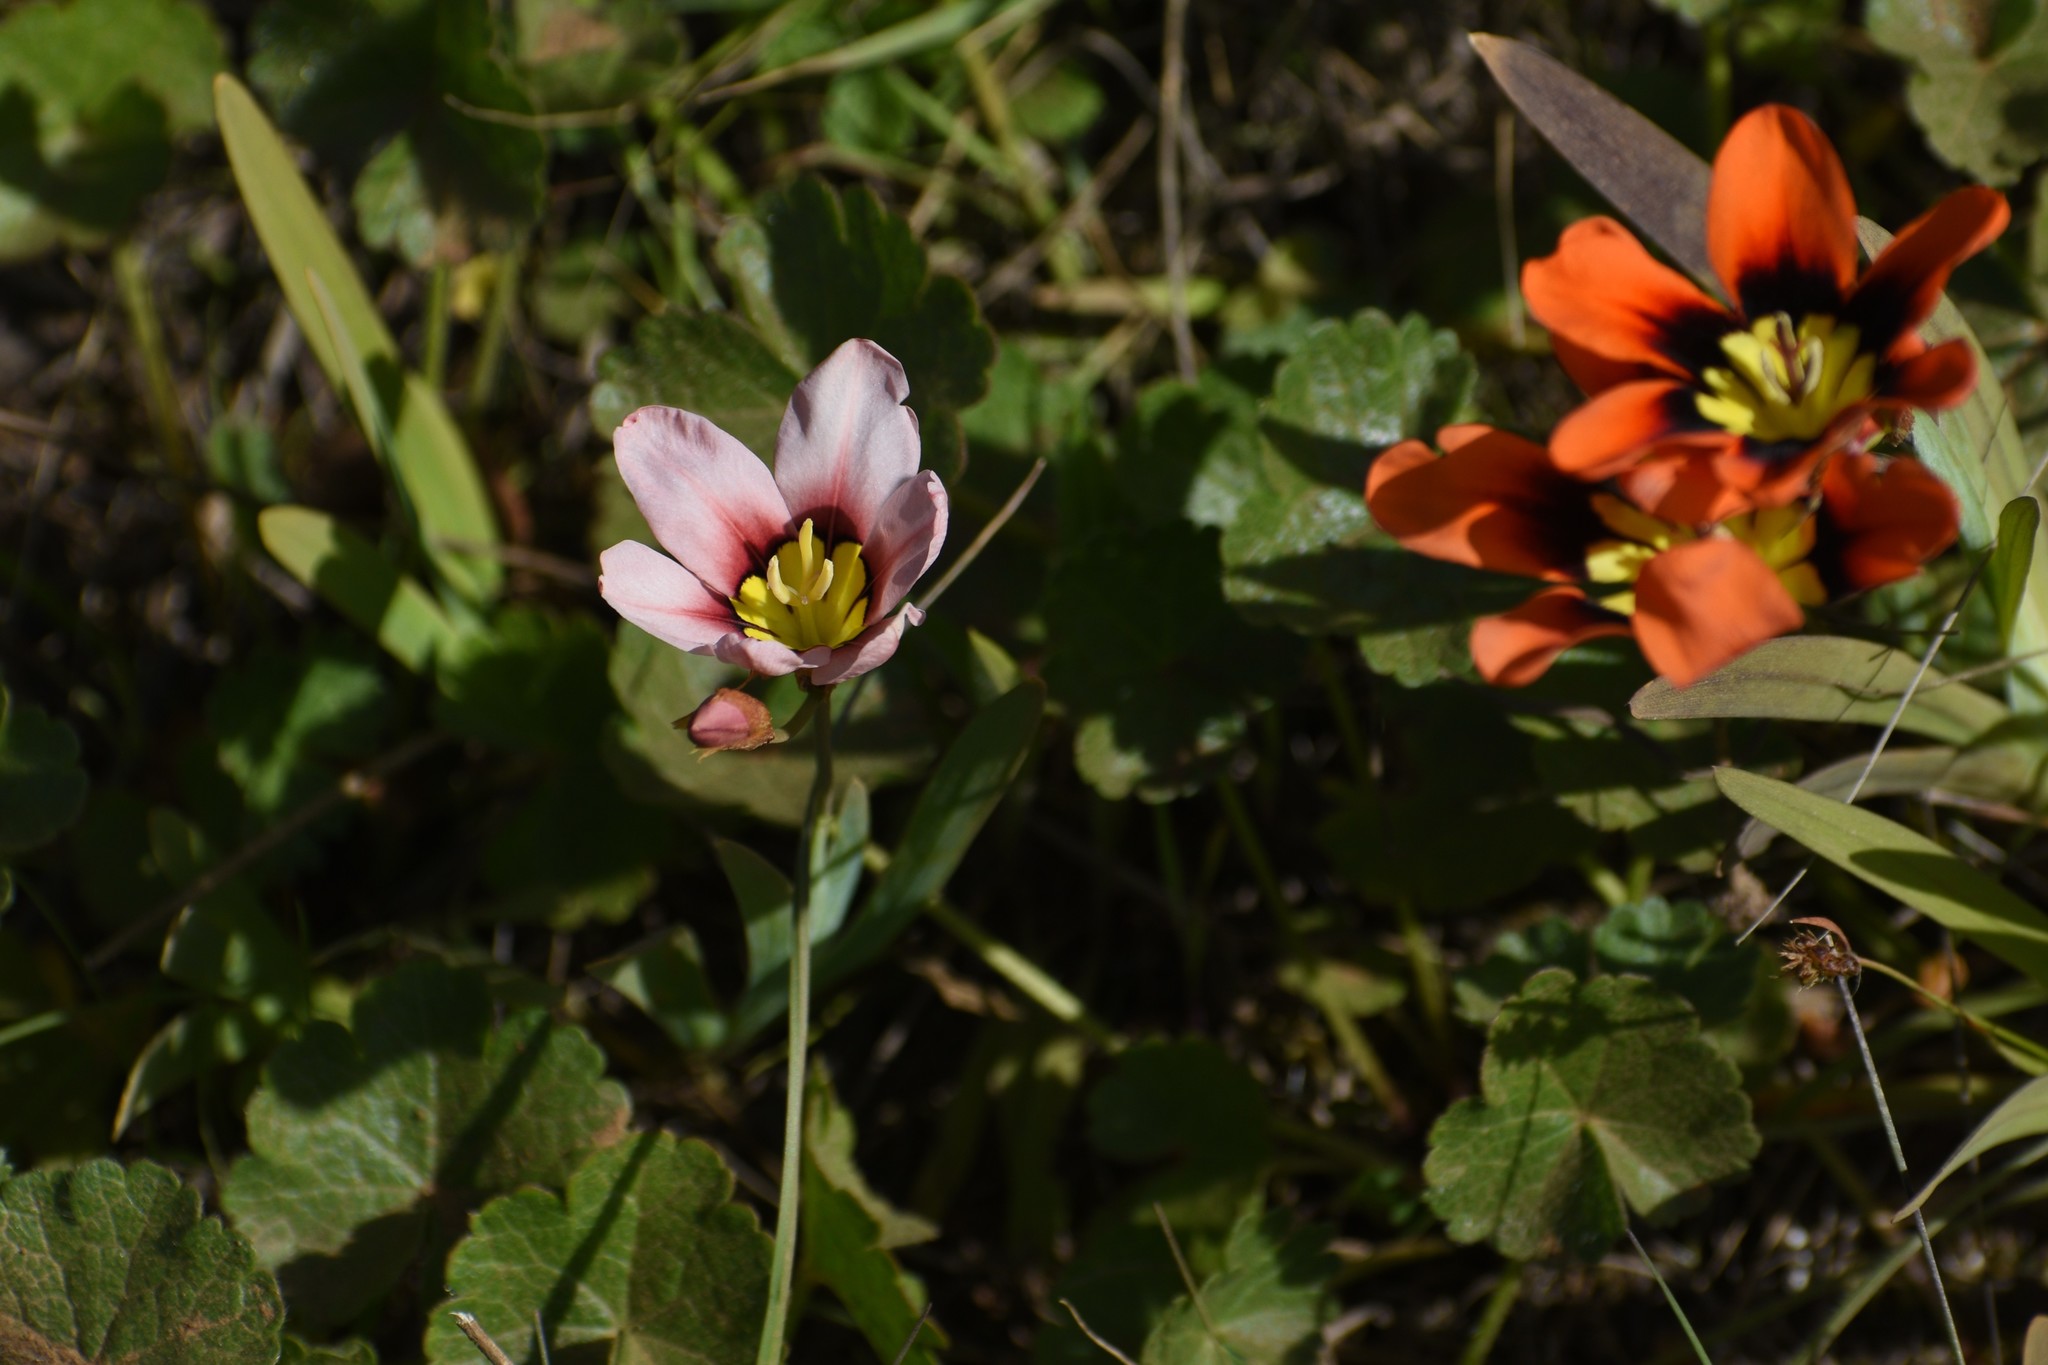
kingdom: Plantae
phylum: Tracheophyta
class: Liliopsida
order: Asparagales
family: Iridaceae
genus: Sparaxis
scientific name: Sparaxis tricolor
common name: Wandflower
